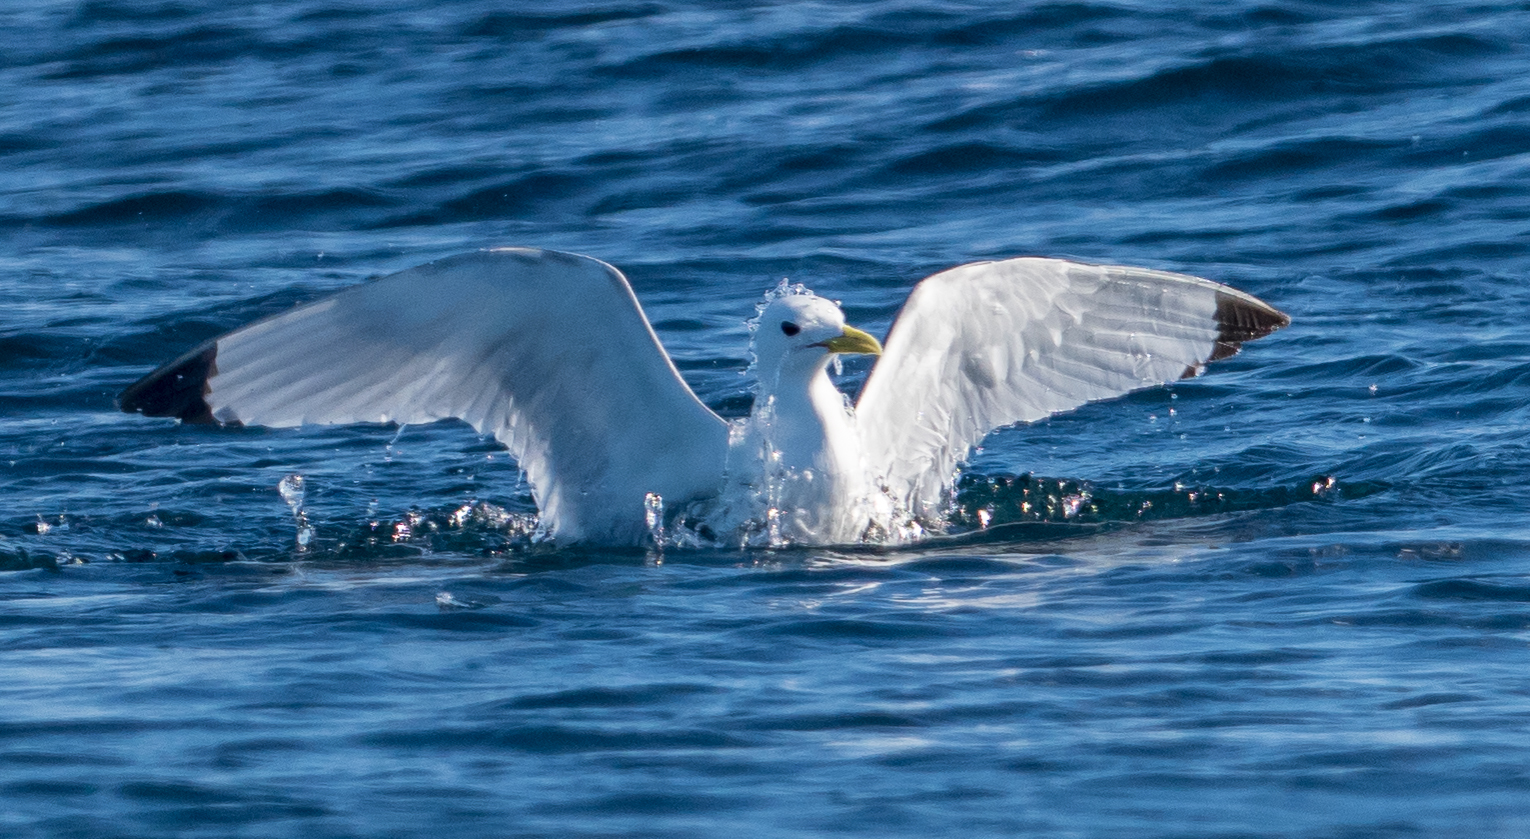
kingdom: Animalia
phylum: Chordata
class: Aves
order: Charadriiformes
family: Laridae
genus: Rissa
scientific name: Rissa tridactyla
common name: Black-legged kittiwake
